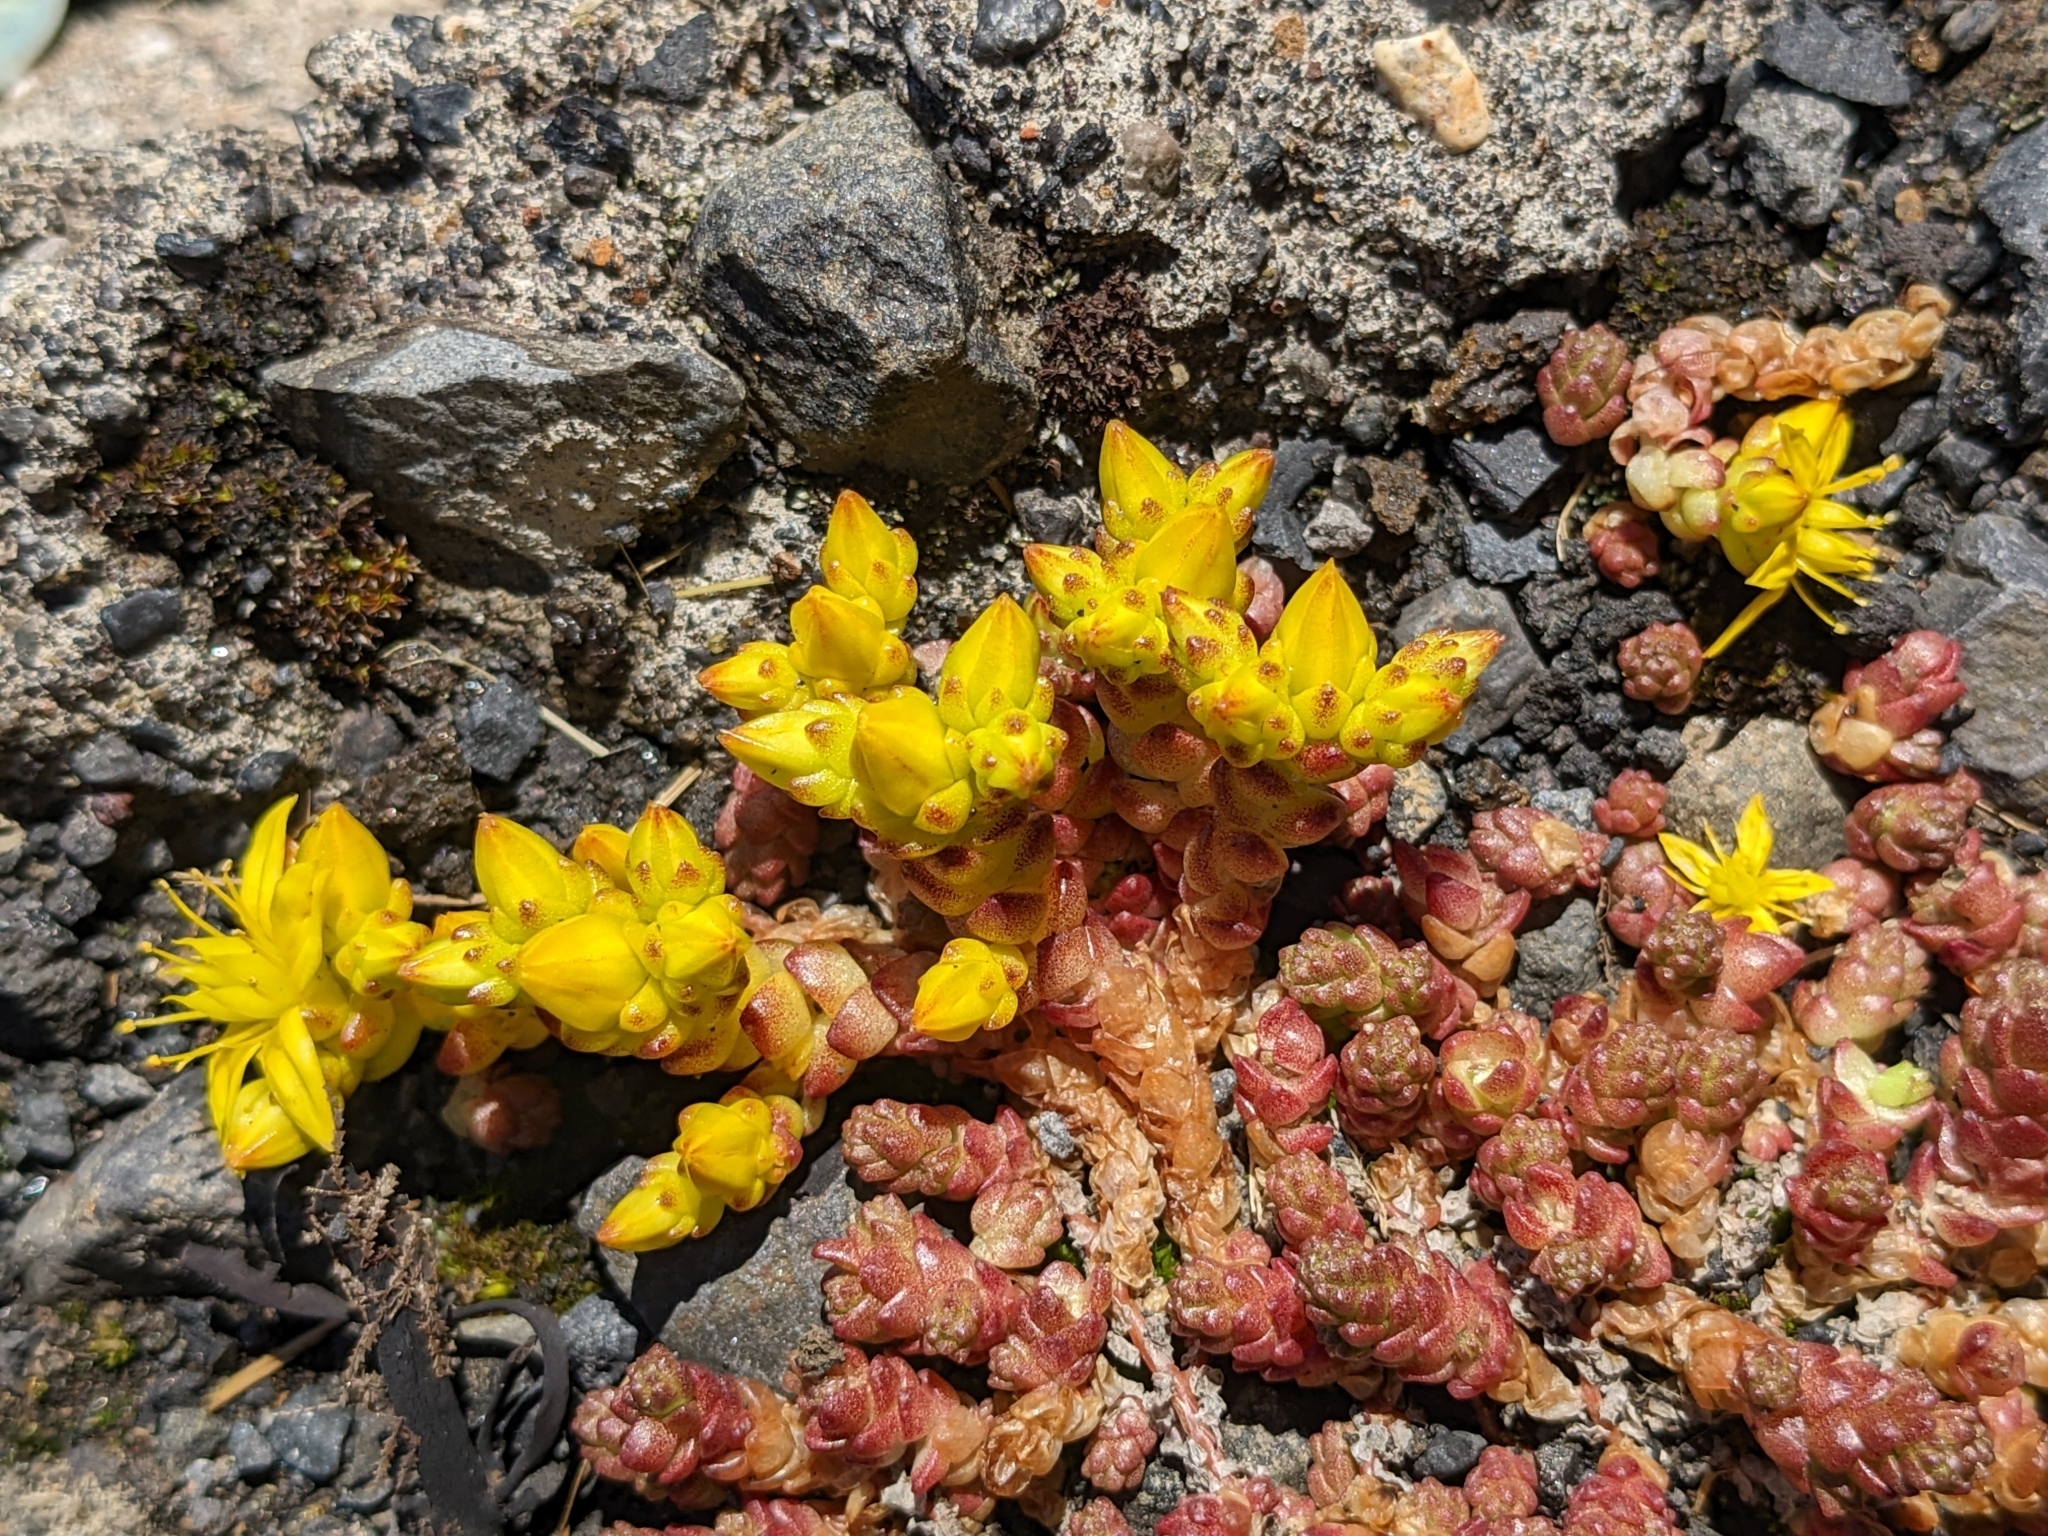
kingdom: Plantae
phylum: Tracheophyta
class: Magnoliopsida
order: Saxifragales
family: Crassulaceae
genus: Sedum
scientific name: Sedum acre
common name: Biting stonecrop
